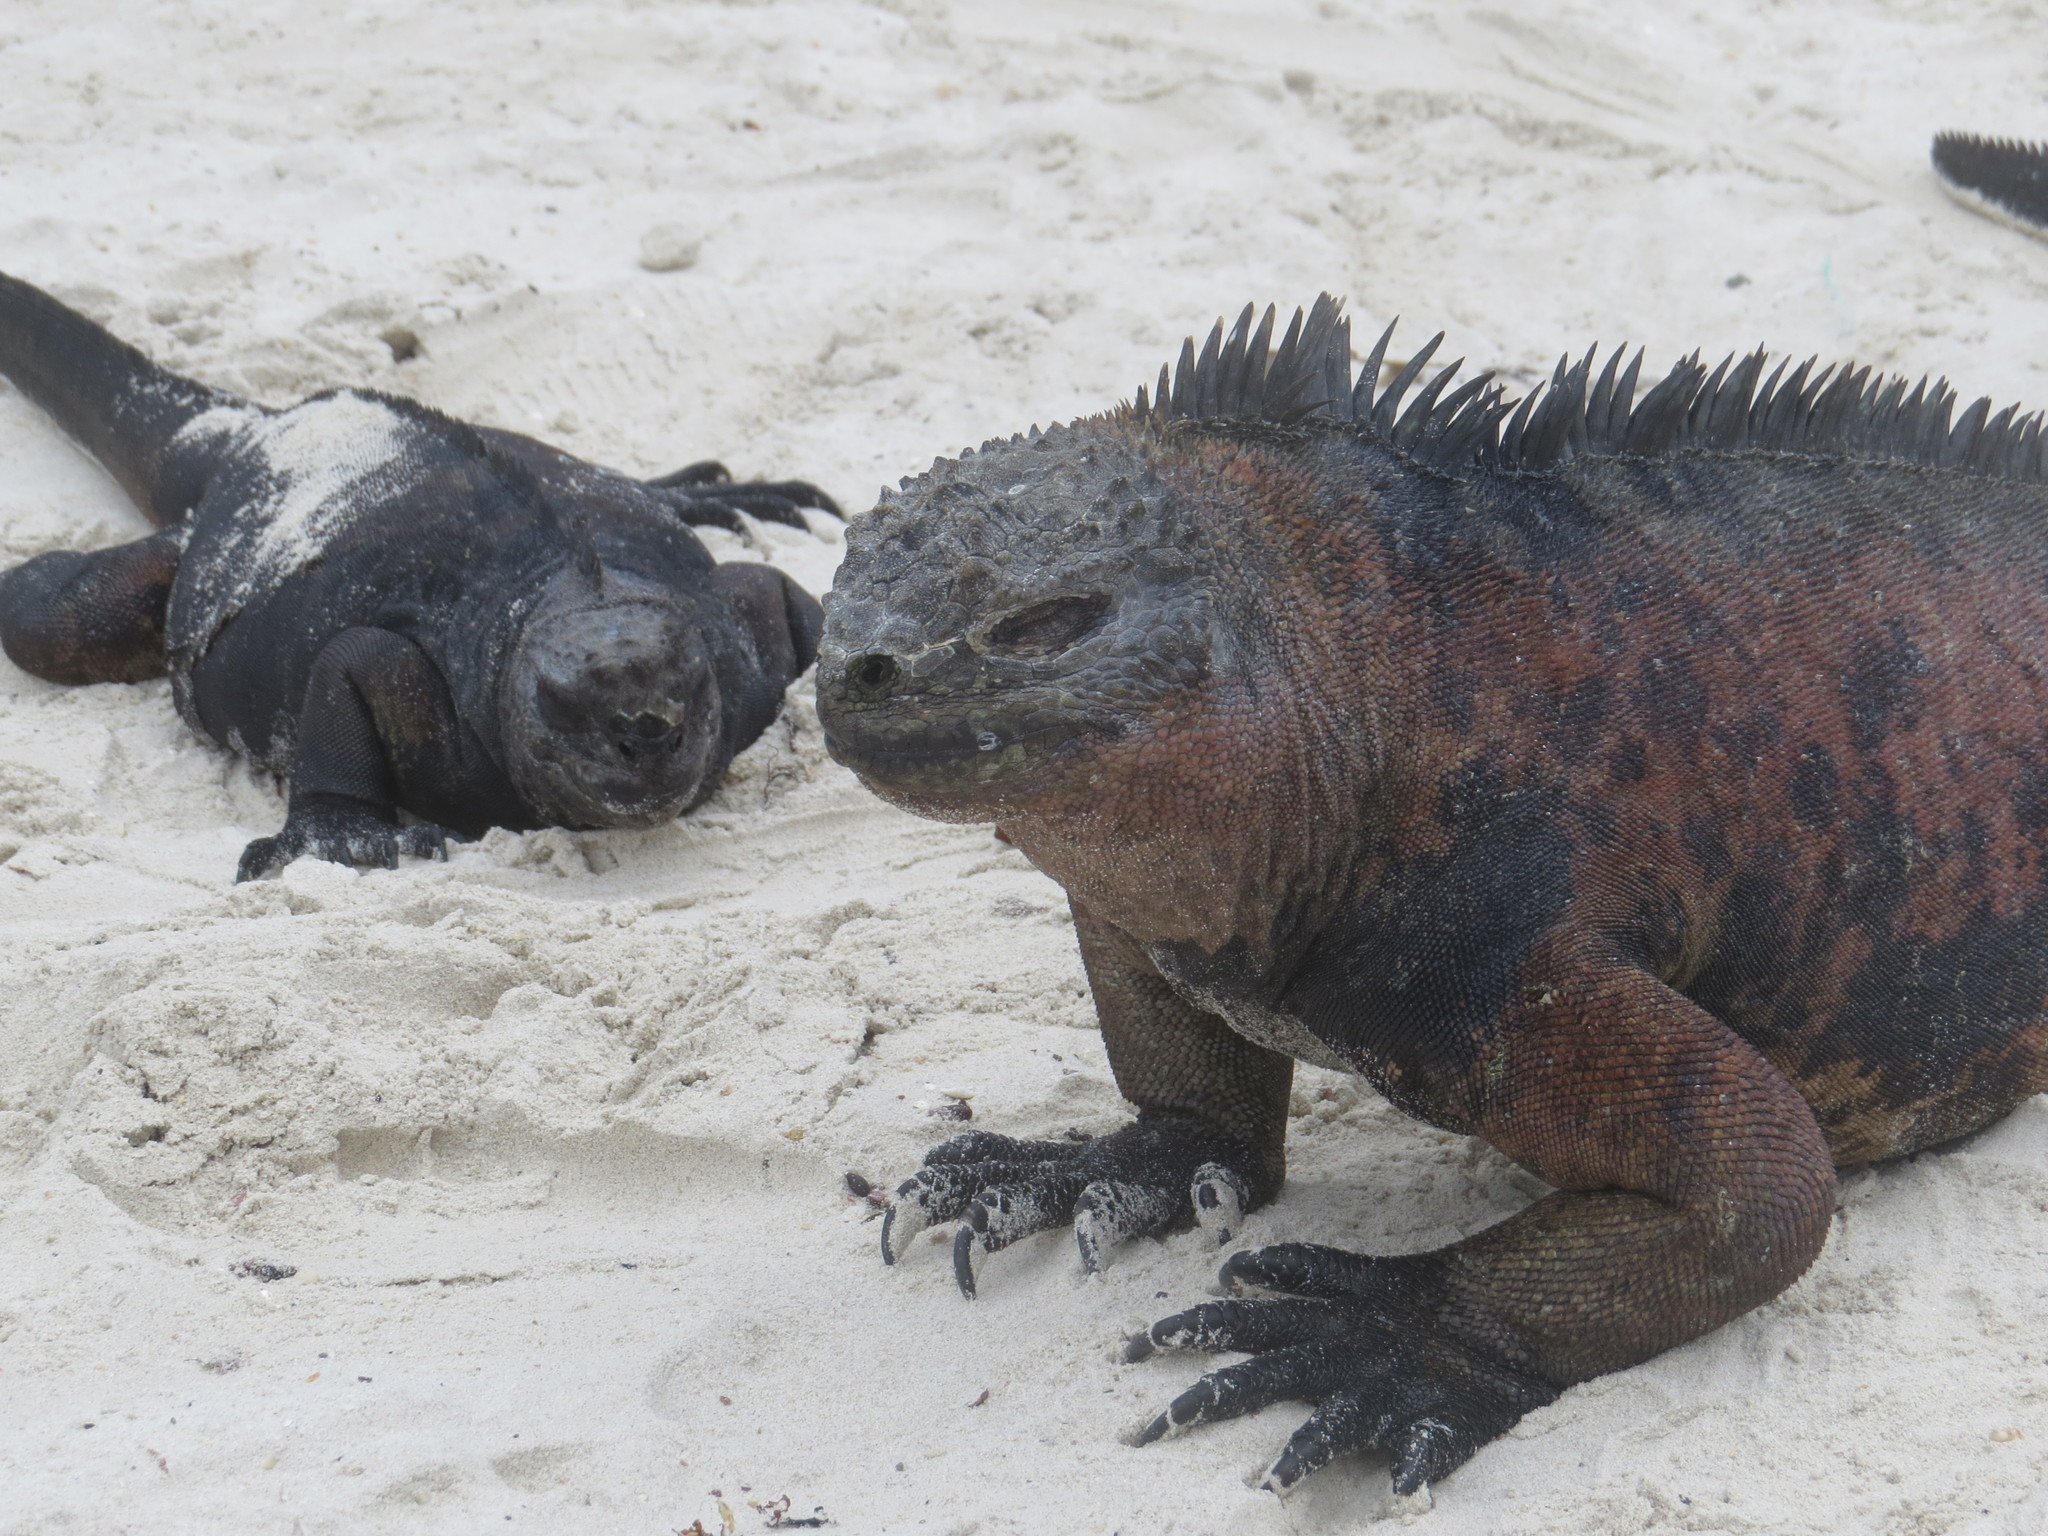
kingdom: Animalia
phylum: Chordata
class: Squamata
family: Iguanidae
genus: Amblyrhynchus
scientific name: Amblyrhynchus cristatus
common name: Marine iguana
